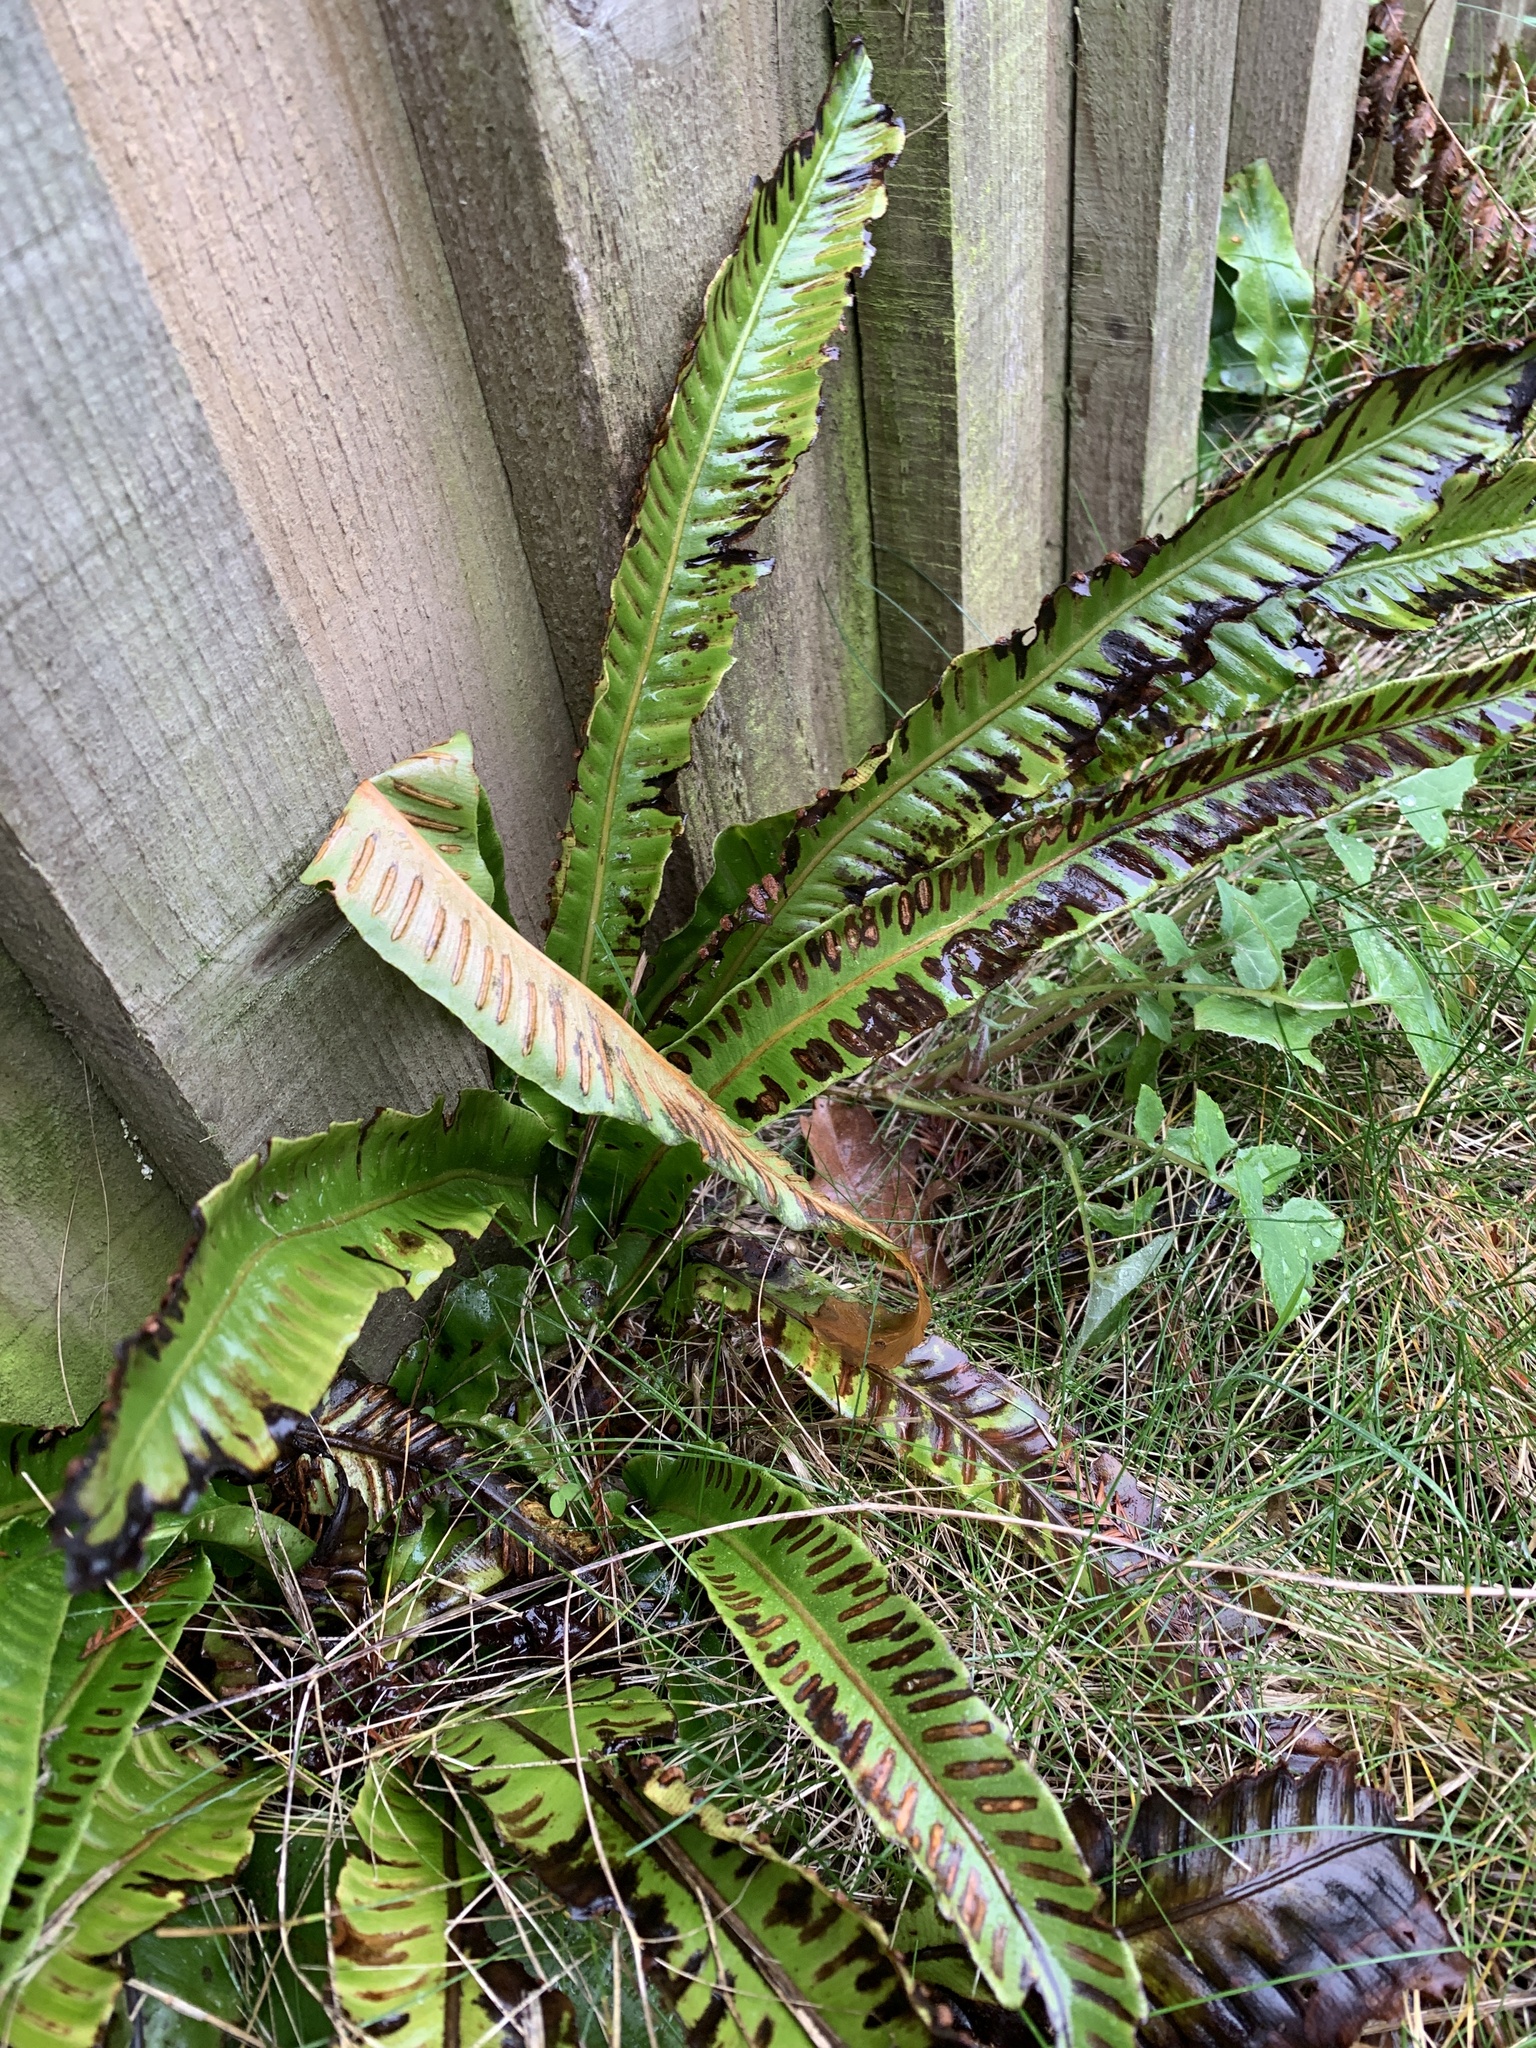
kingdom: Plantae
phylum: Tracheophyta
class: Polypodiopsida
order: Polypodiales
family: Aspleniaceae
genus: Asplenium
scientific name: Asplenium scolopendrium
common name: Hart's-tongue fern
